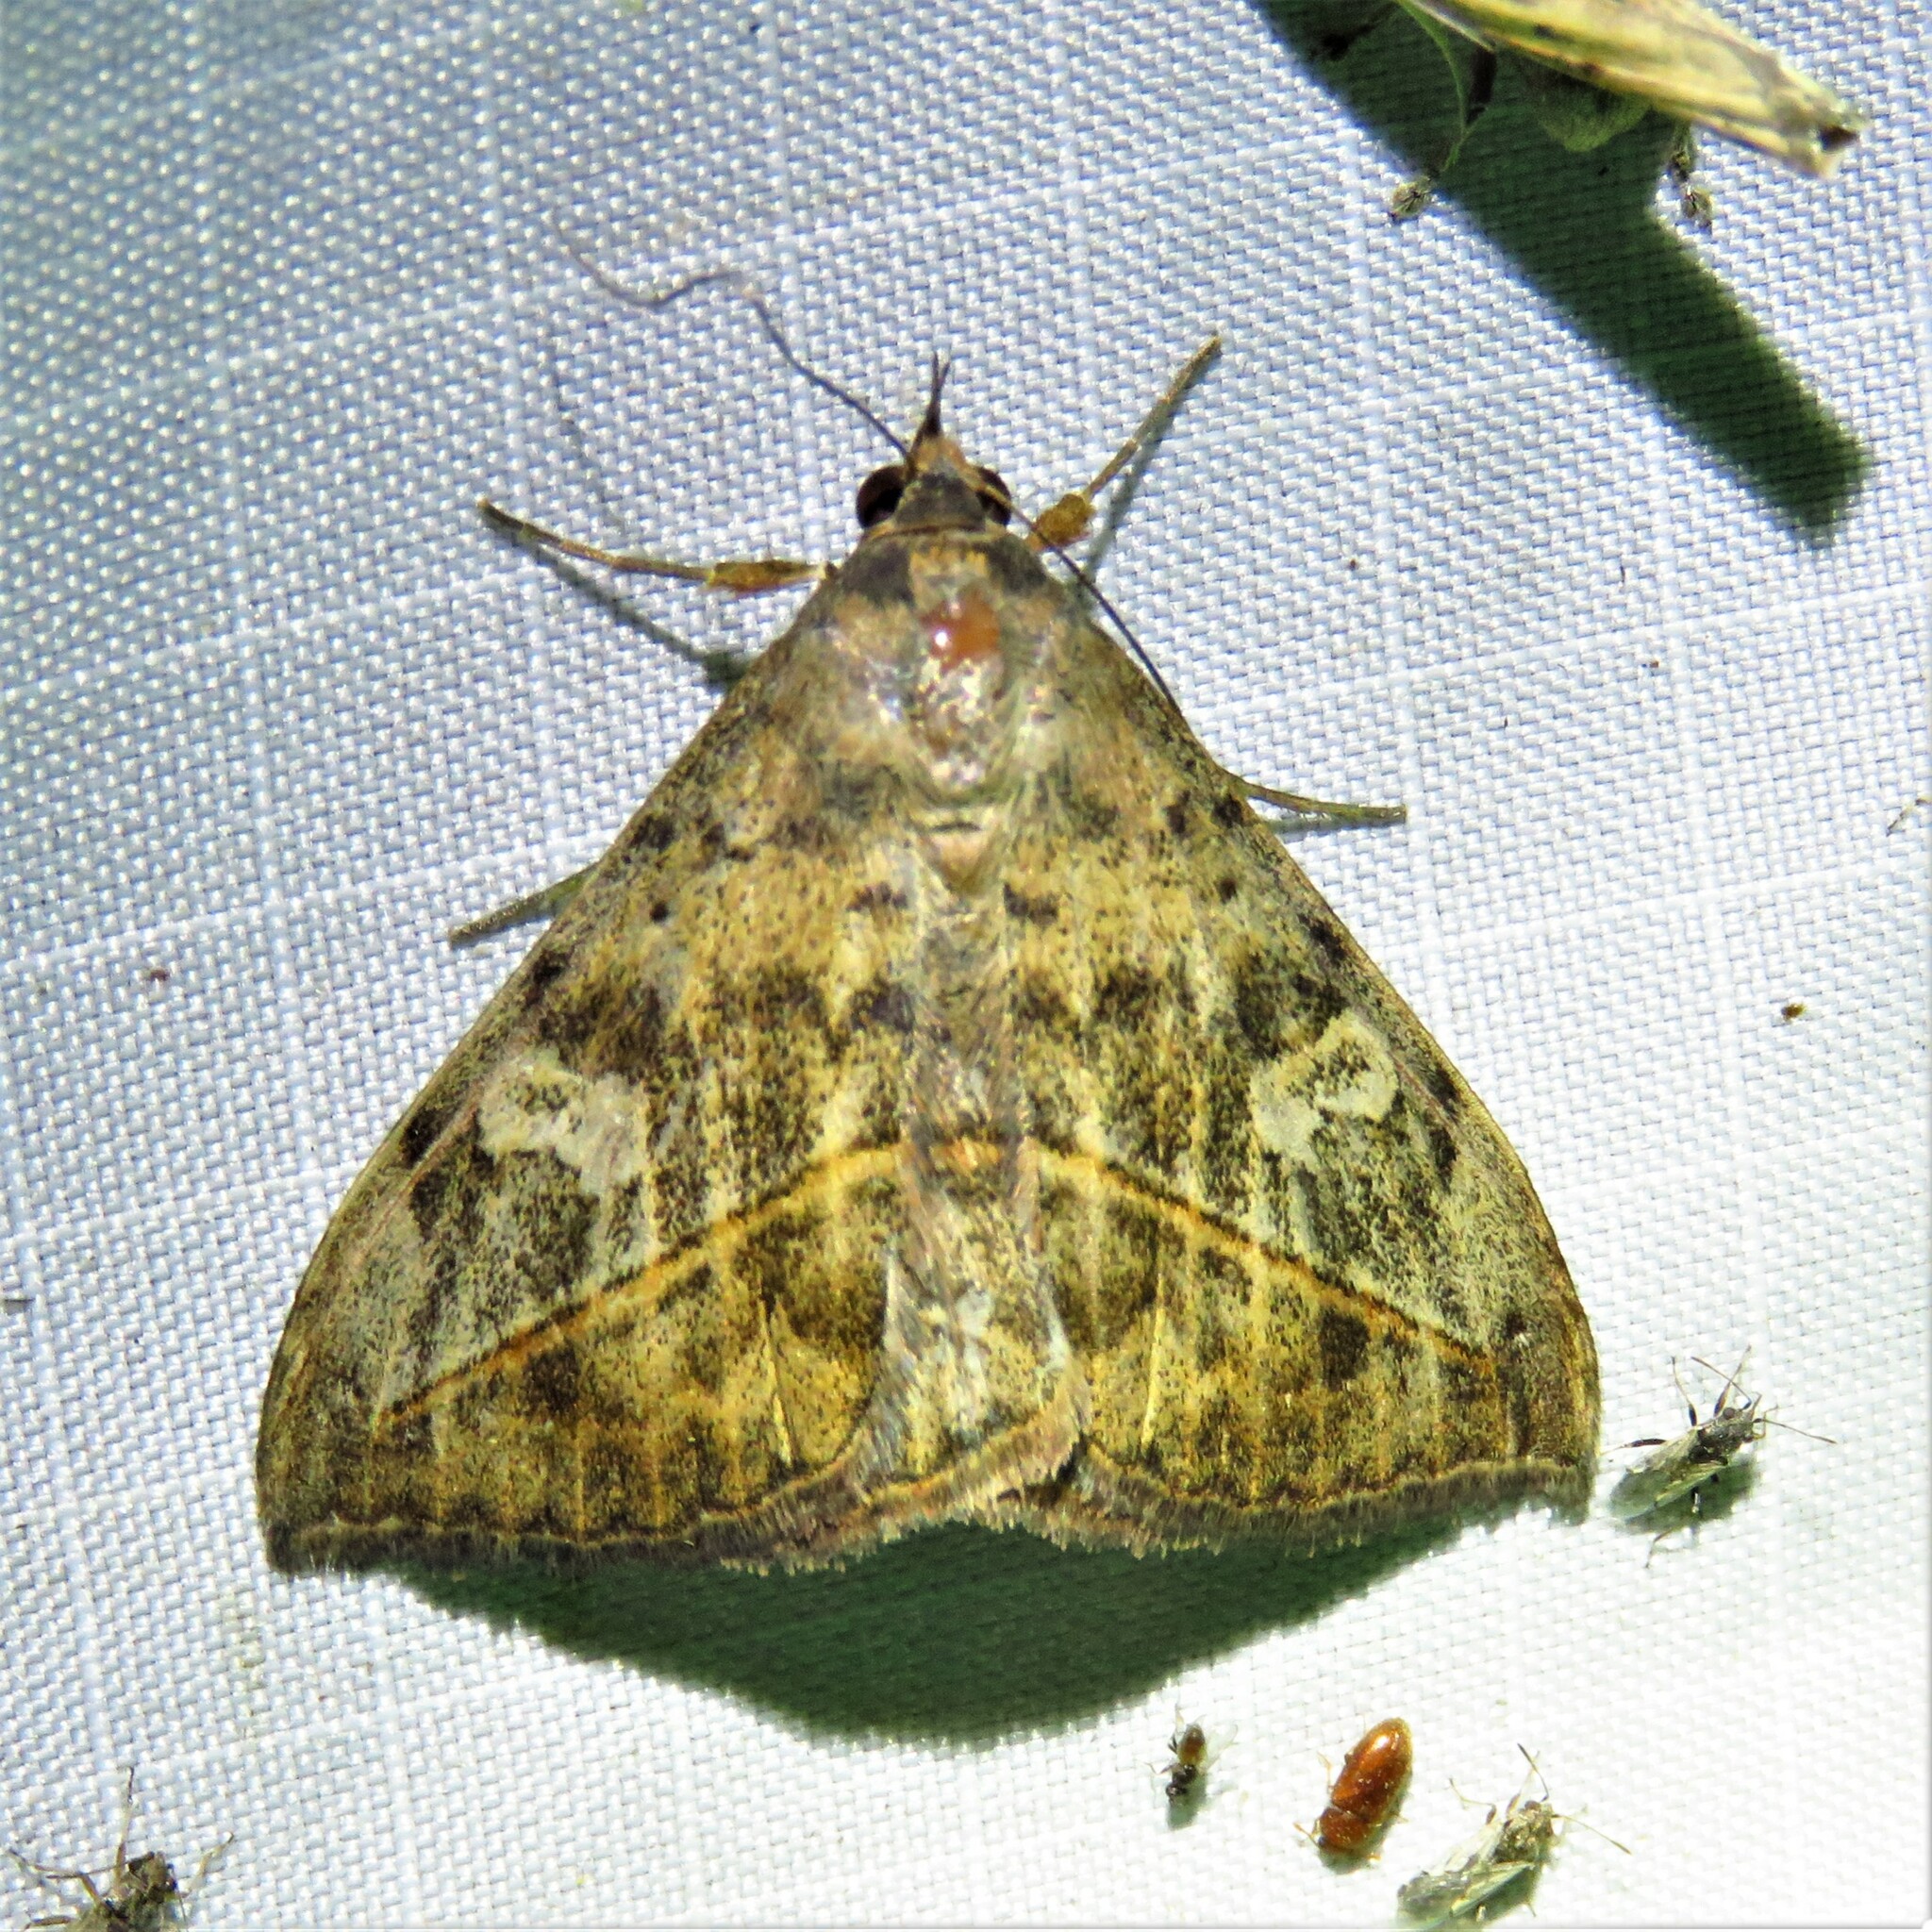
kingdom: Animalia
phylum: Arthropoda
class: Insecta
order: Lepidoptera
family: Erebidae
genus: Anticarsia
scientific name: Anticarsia gemmatalis
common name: Cutworm moth
